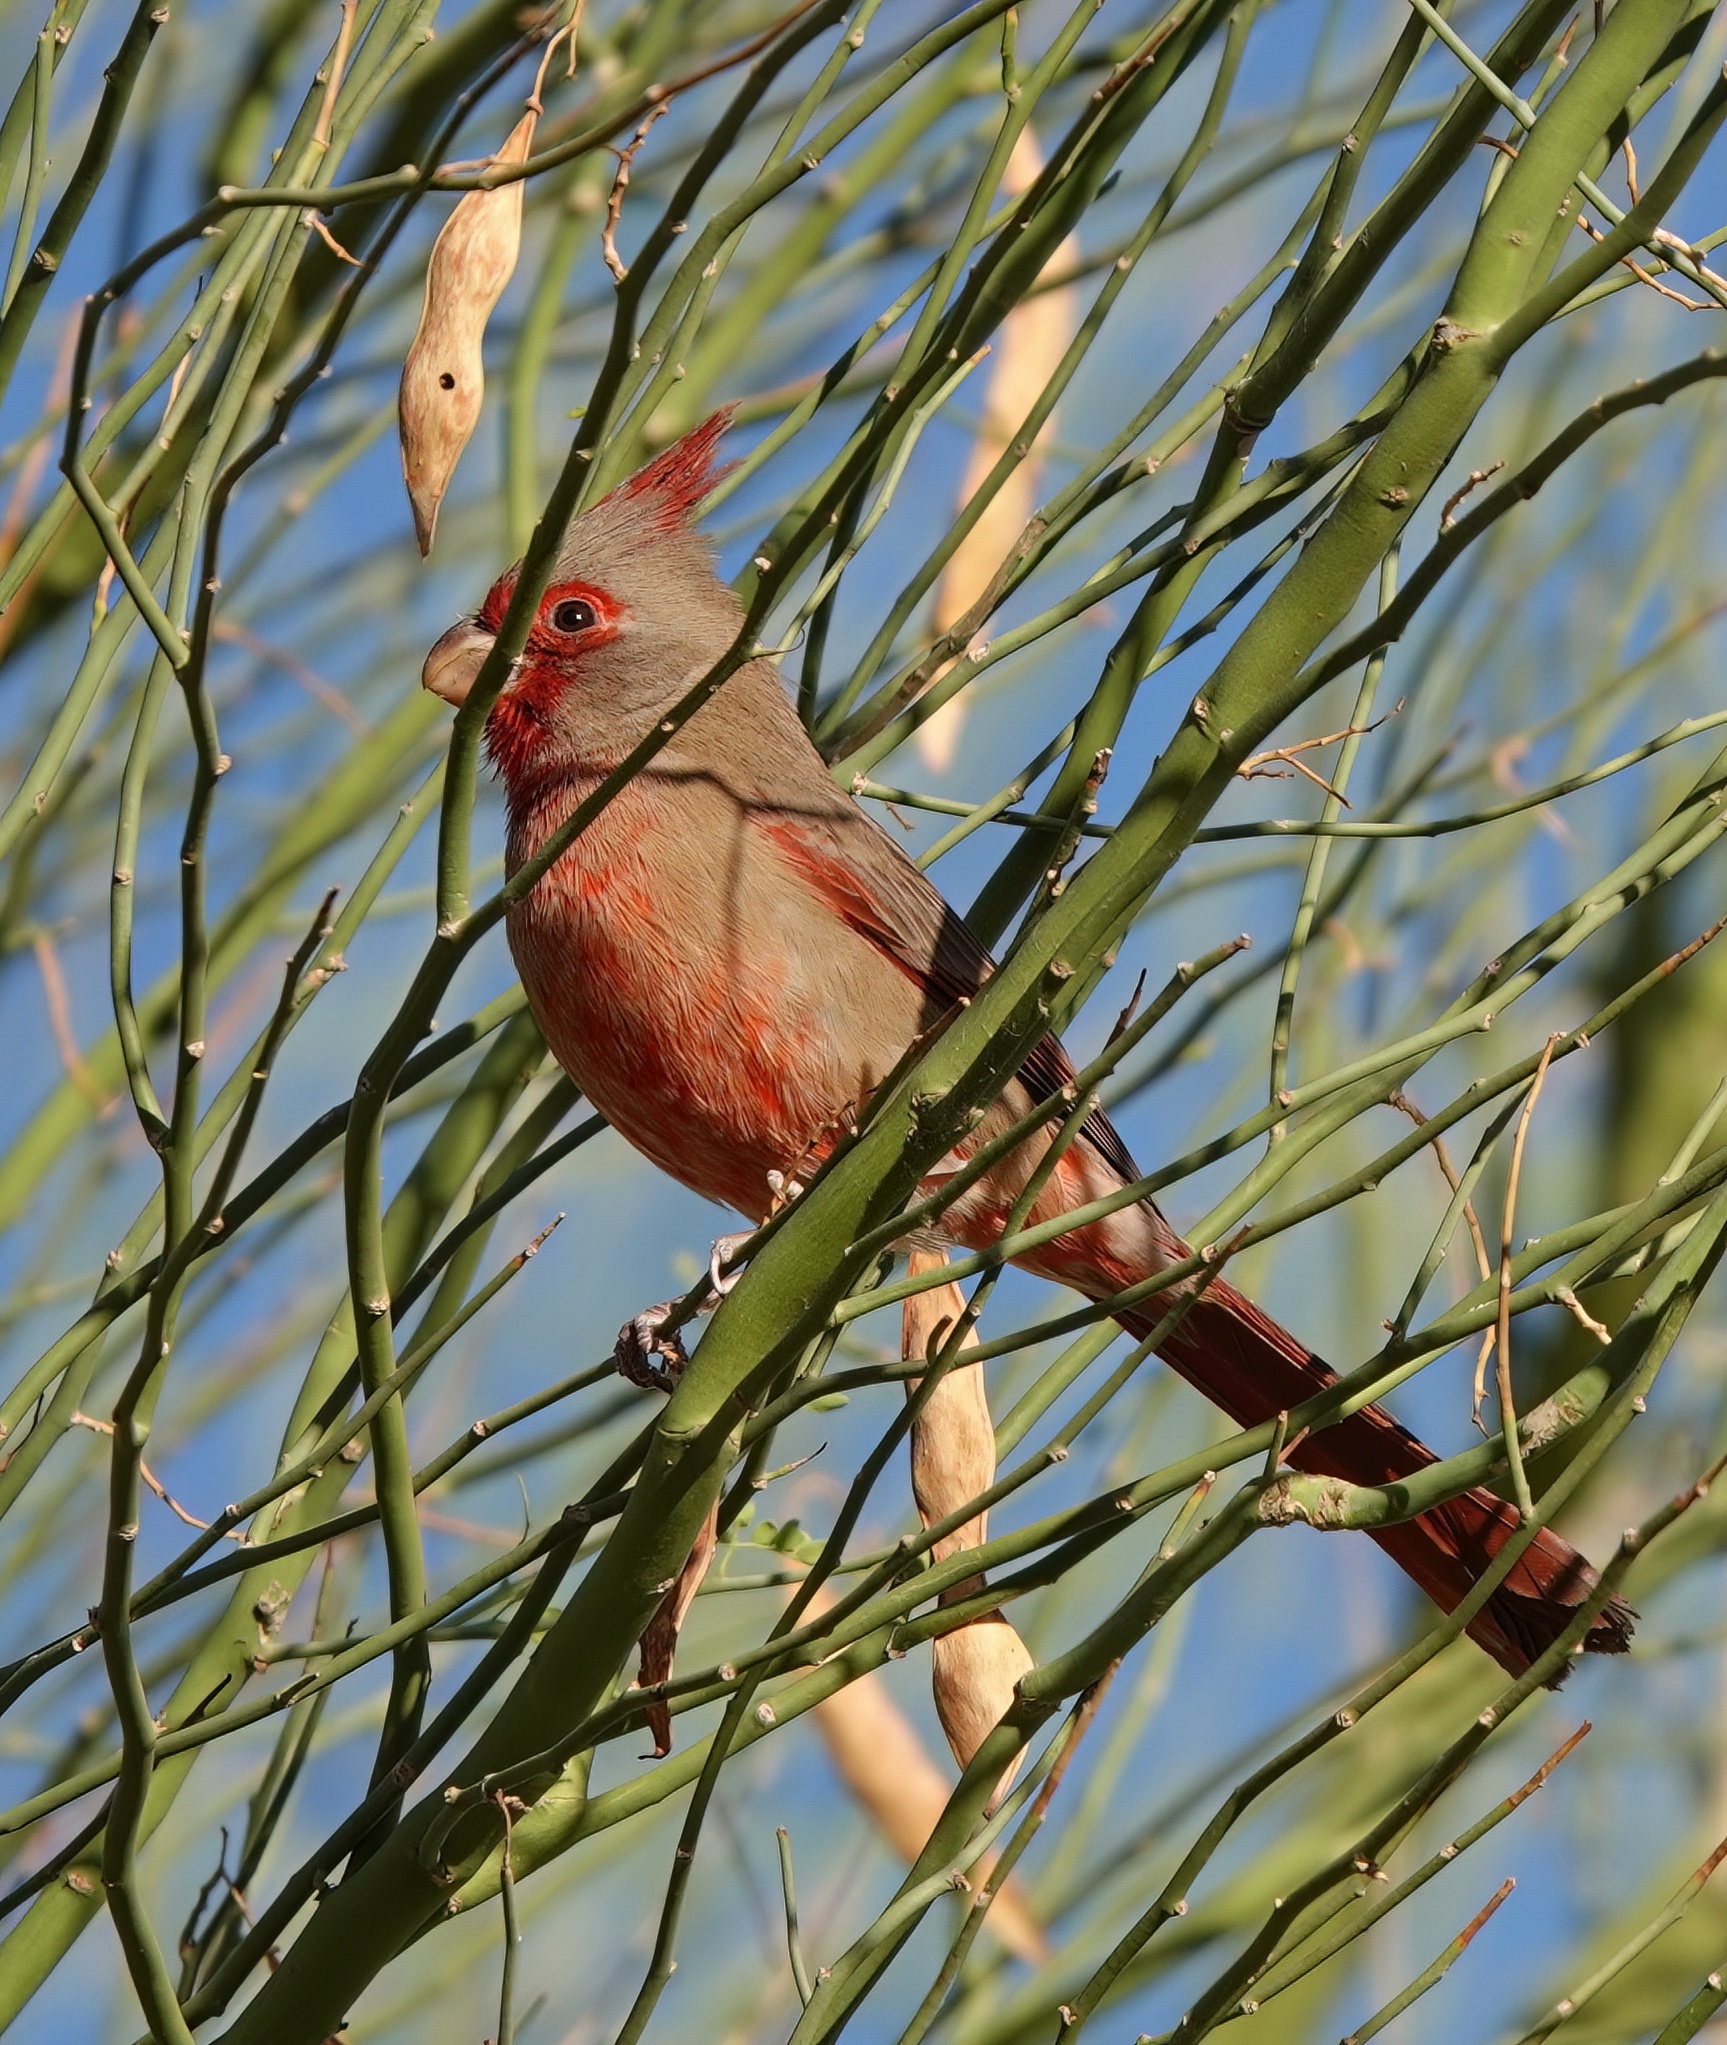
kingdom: Animalia
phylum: Chordata
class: Aves
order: Passeriformes
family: Cardinalidae
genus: Cardinalis
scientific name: Cardinalis sinuatus
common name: Pyrrhuloxia
